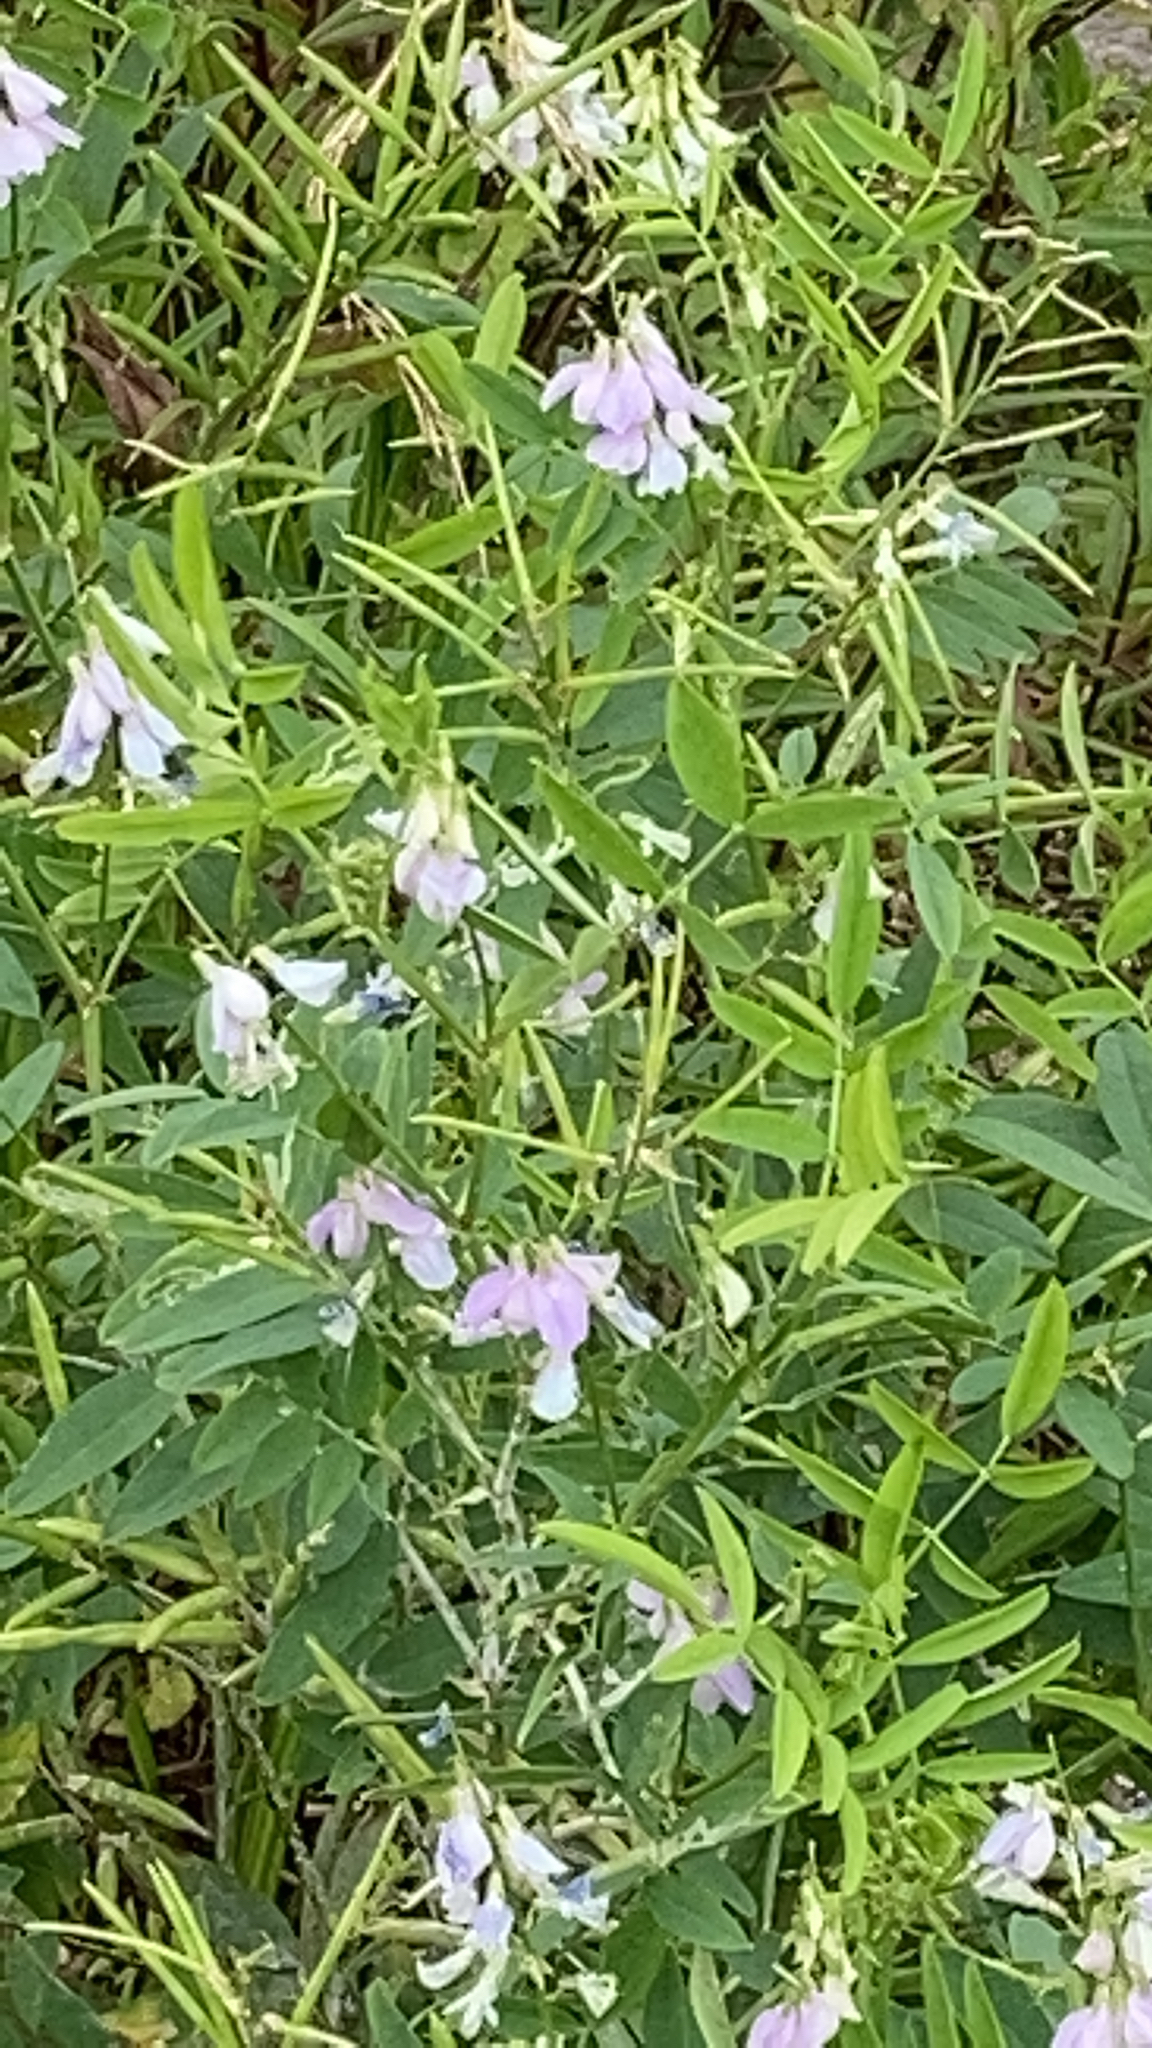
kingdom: Plantae
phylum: Tracheophyta
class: Magnoliopsida
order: Fabales
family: Fabaceae
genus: Galega
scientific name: Galega officinalis
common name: Goat's-rue
